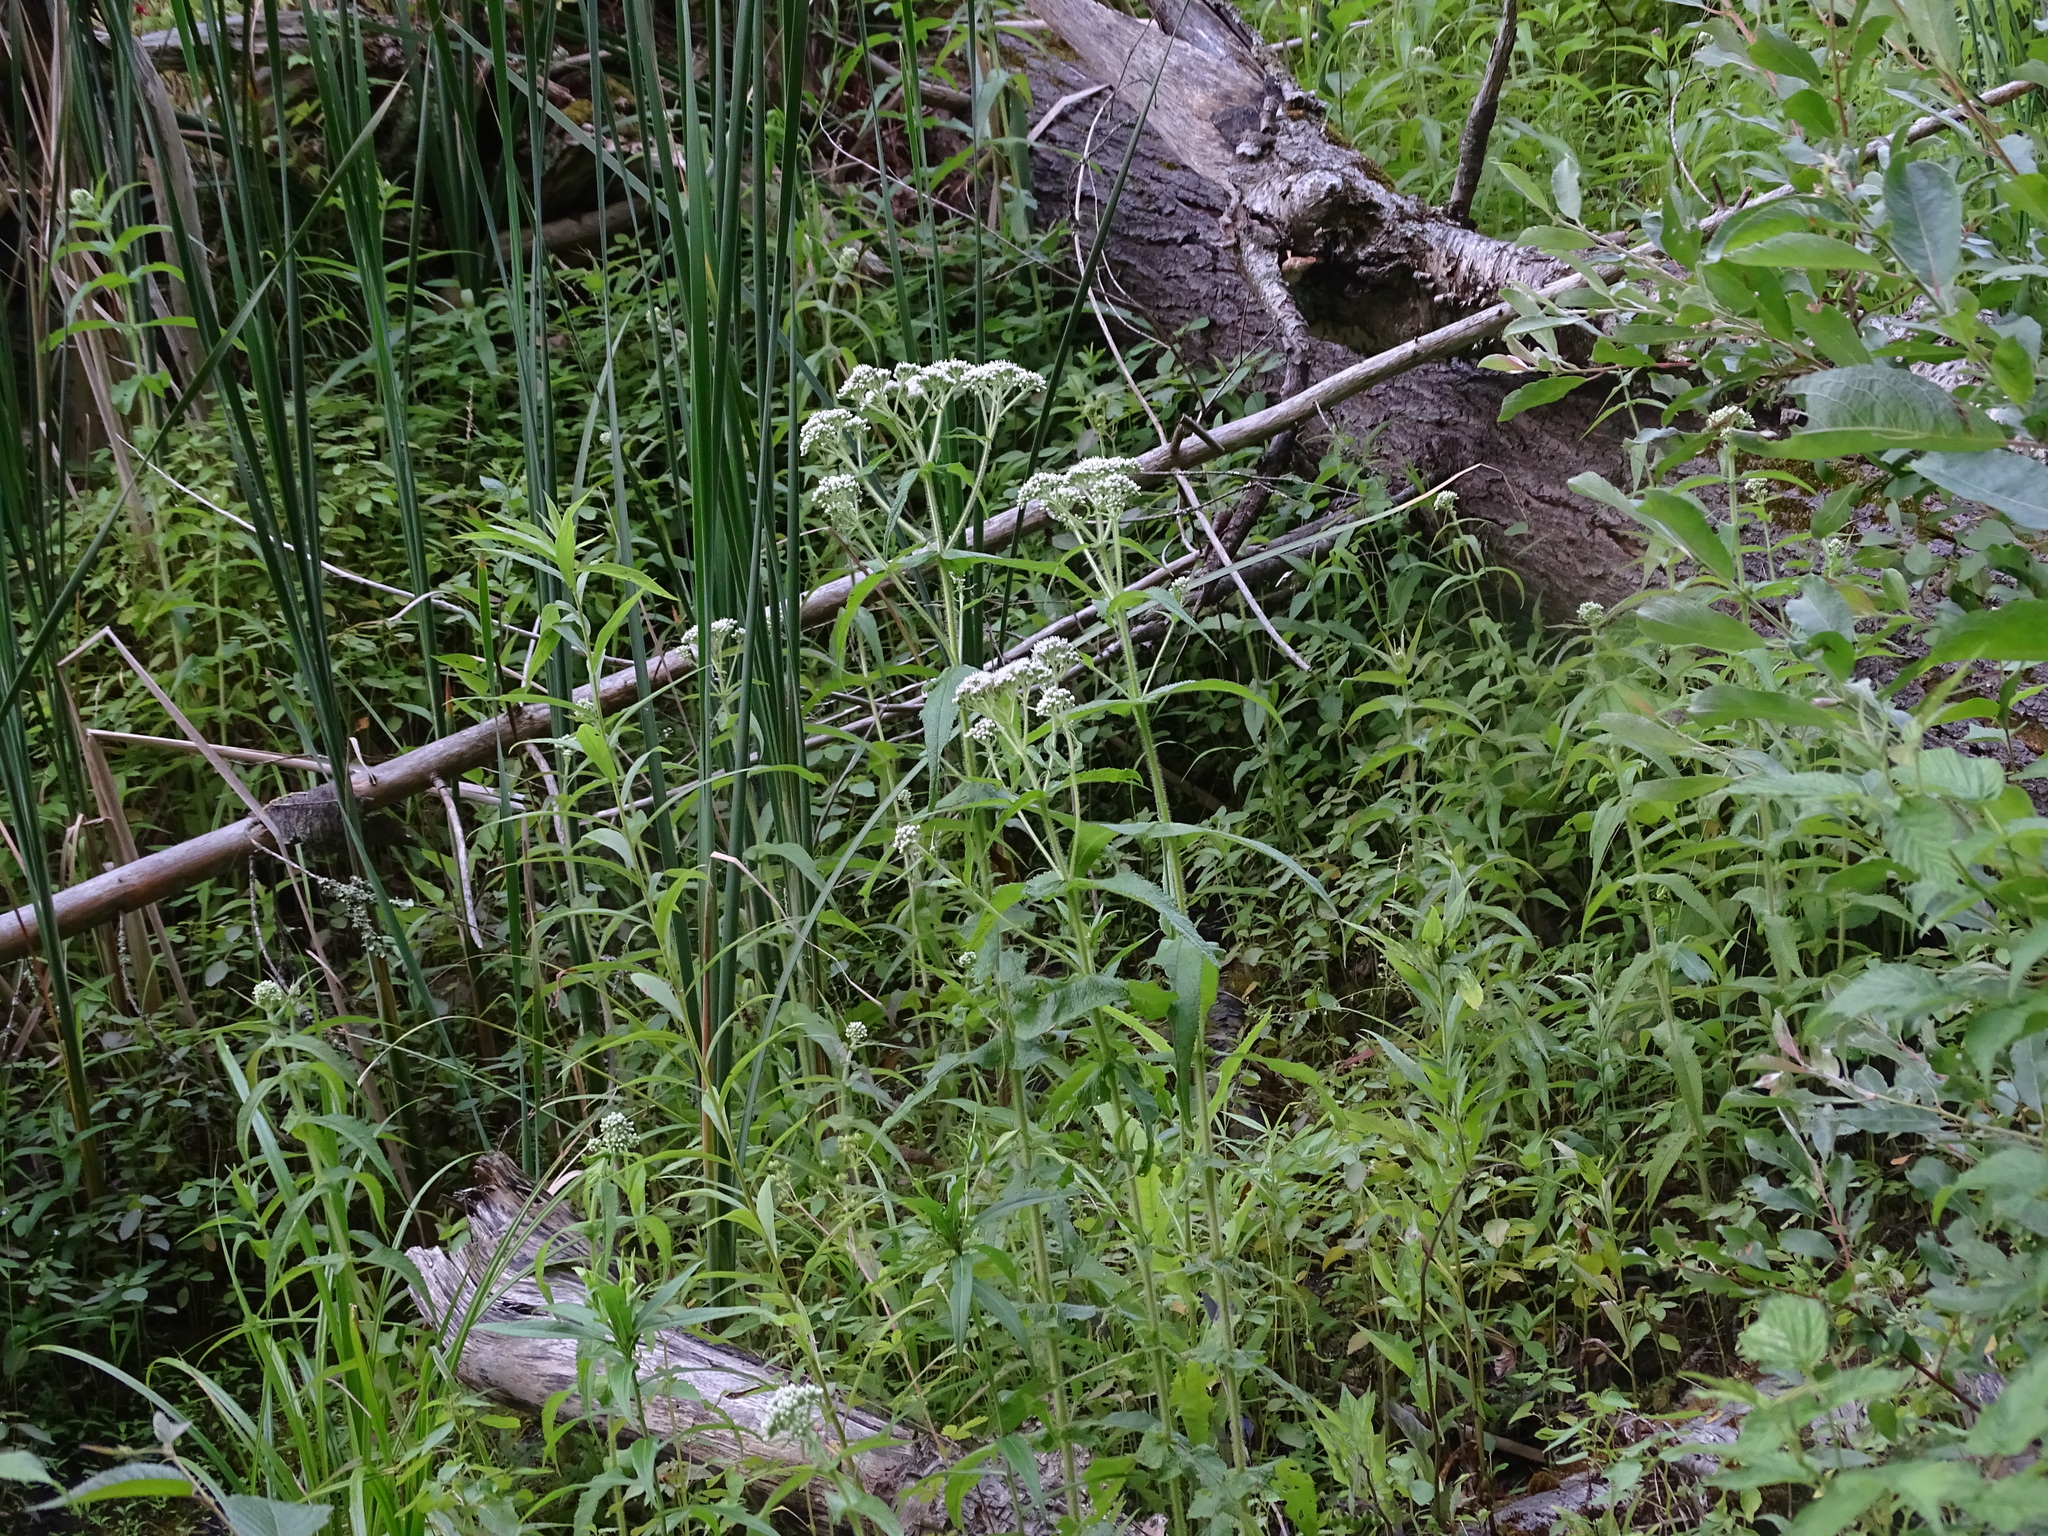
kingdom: Plantae
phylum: Tracheophyta
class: Magnoliopsida
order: Asterales
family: Asteraceae
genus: Eupatorium
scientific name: Eupatorium perfoliatum
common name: Boneset
